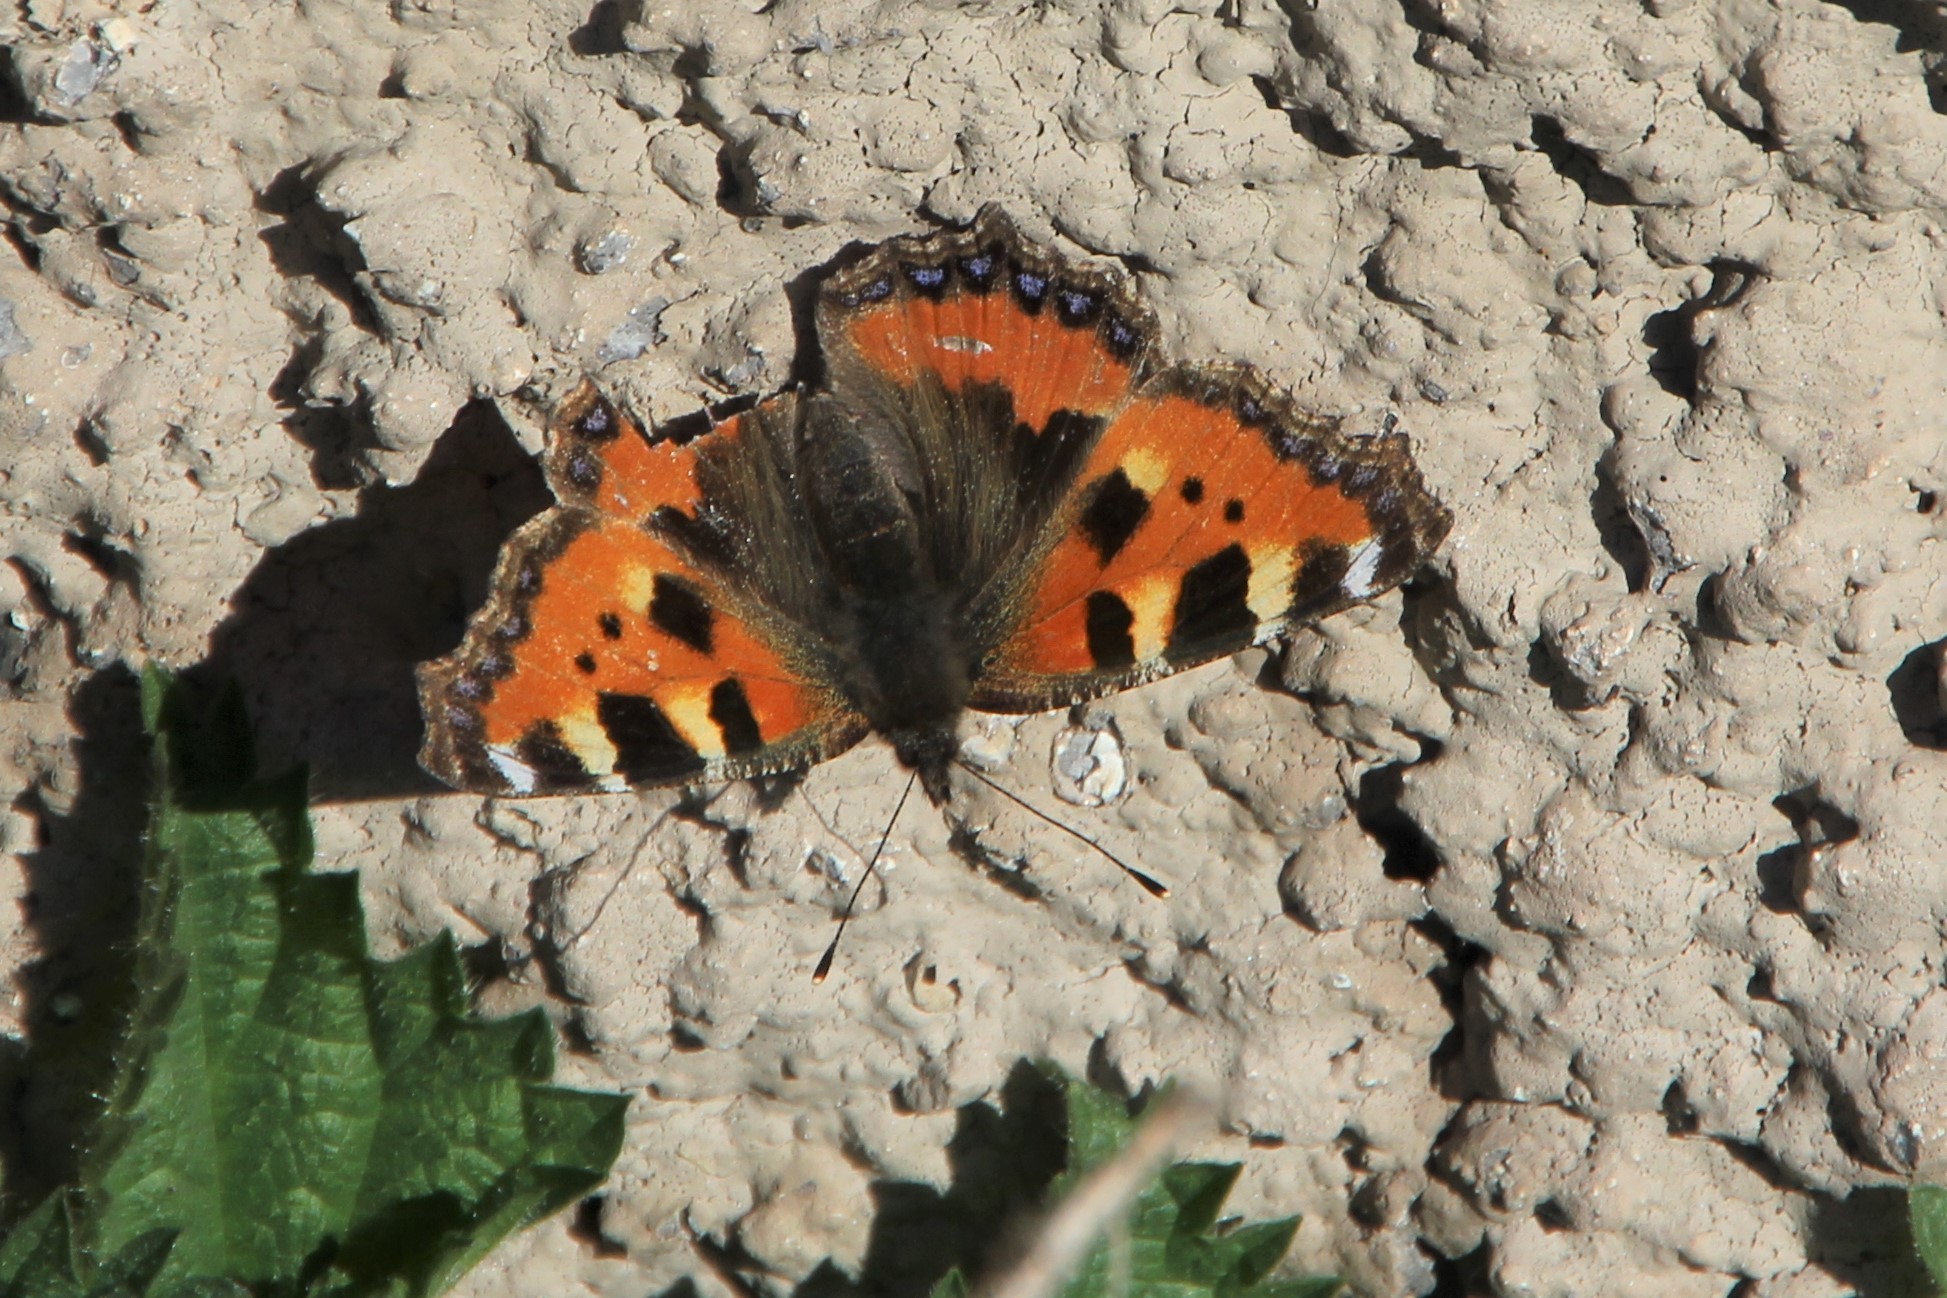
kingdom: Animalia
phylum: Arthropoda
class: Insecta
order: Lepidoptera
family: Nymphalidae
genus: Aglais
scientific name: Aglais urticae
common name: Small tortoiseshell
